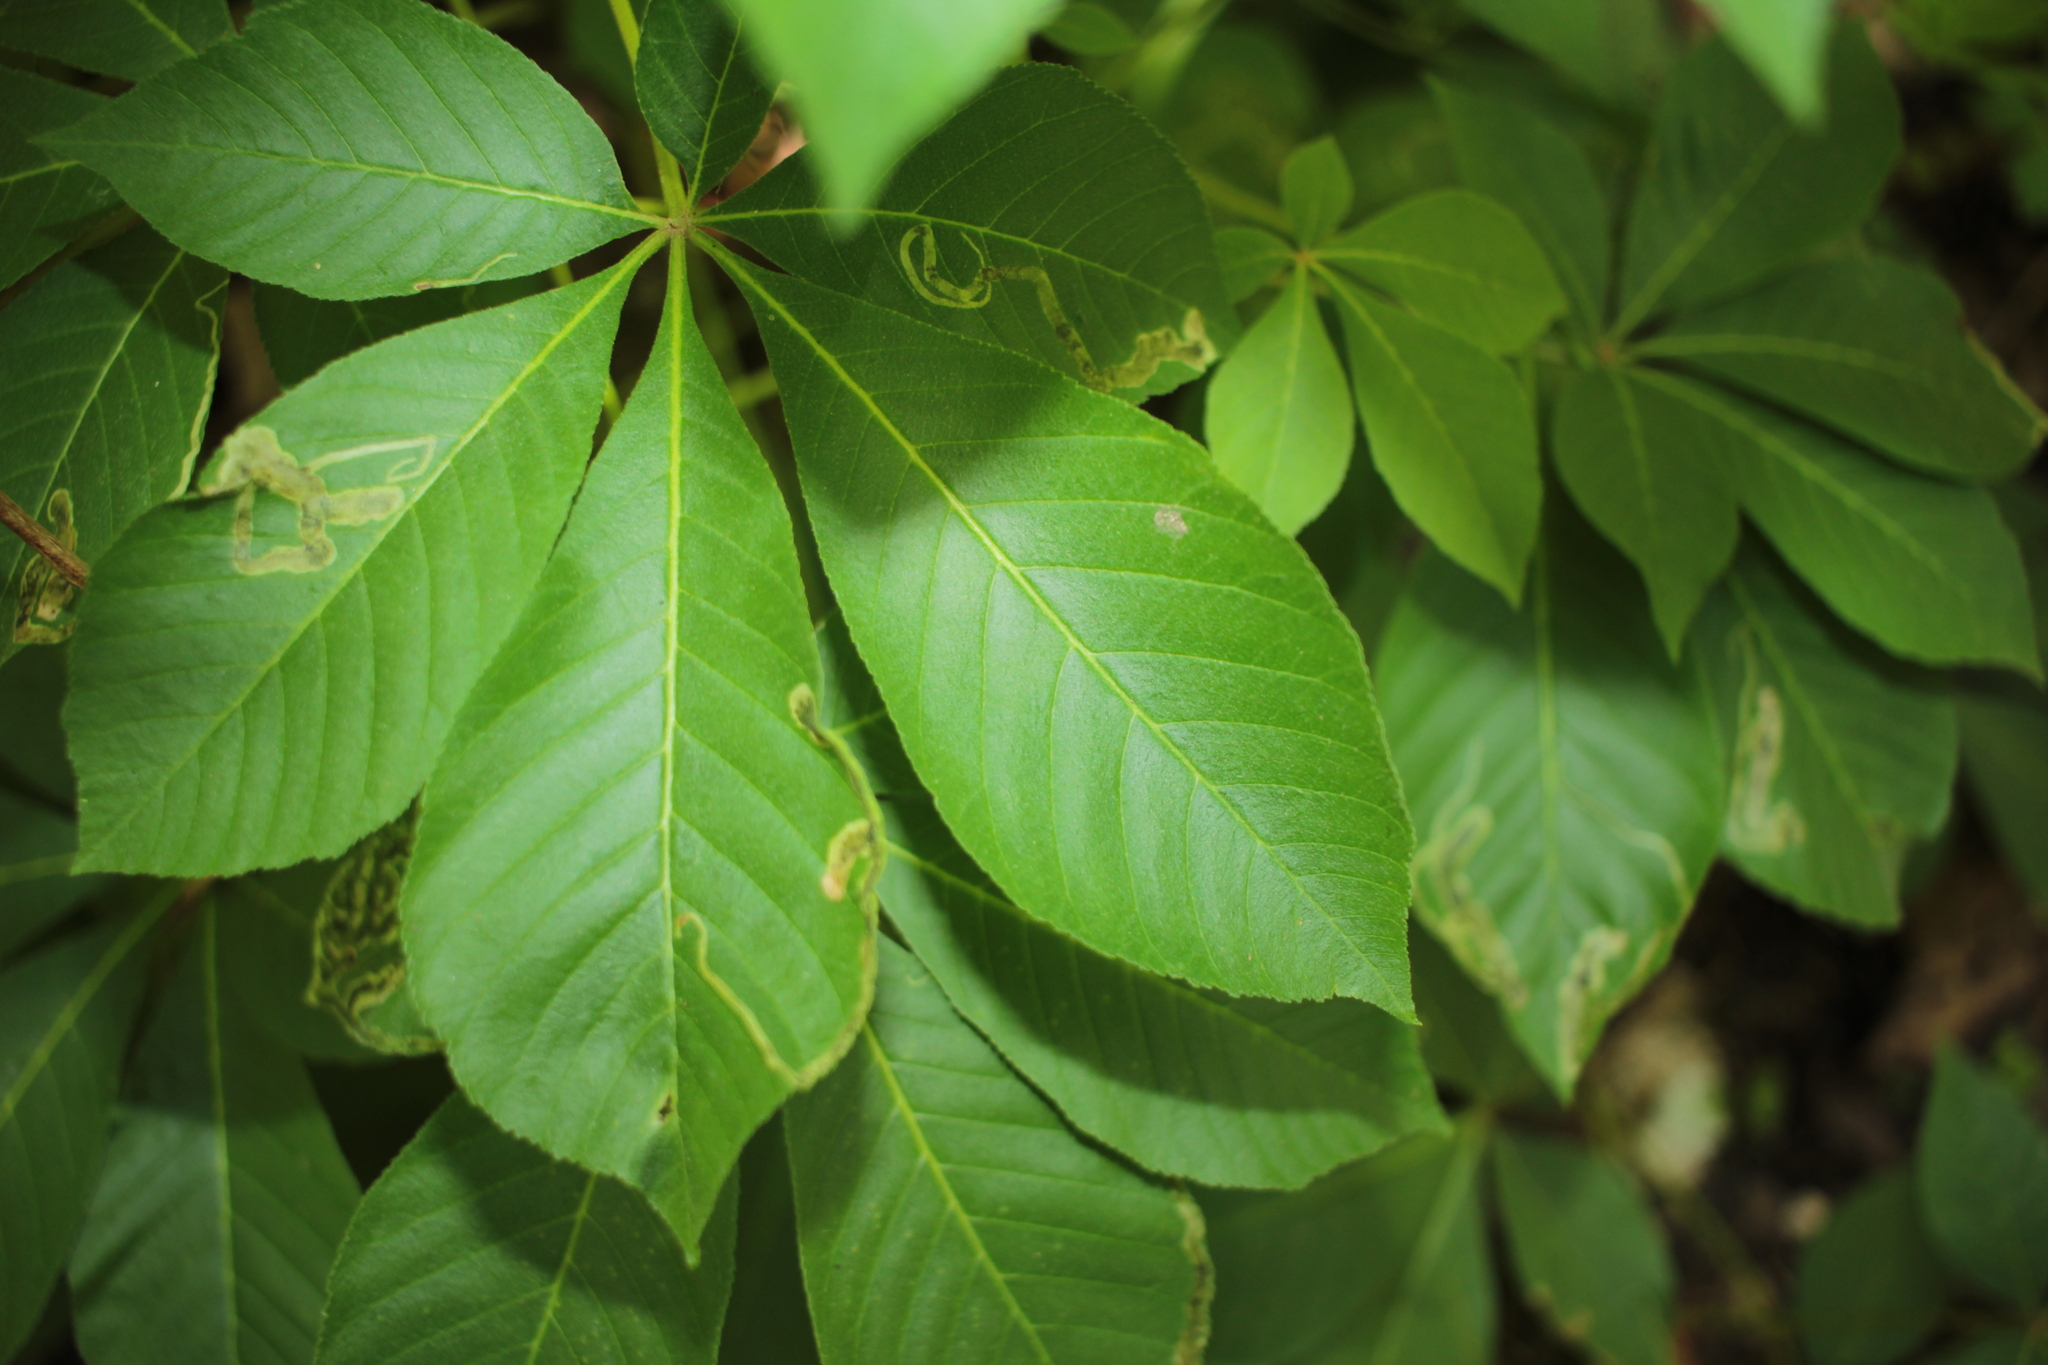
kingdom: Animalia
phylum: Arthropoda
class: Insecta
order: Diptera
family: Agromyzidae
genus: Phytomyza
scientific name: Phytomyza aesculi
